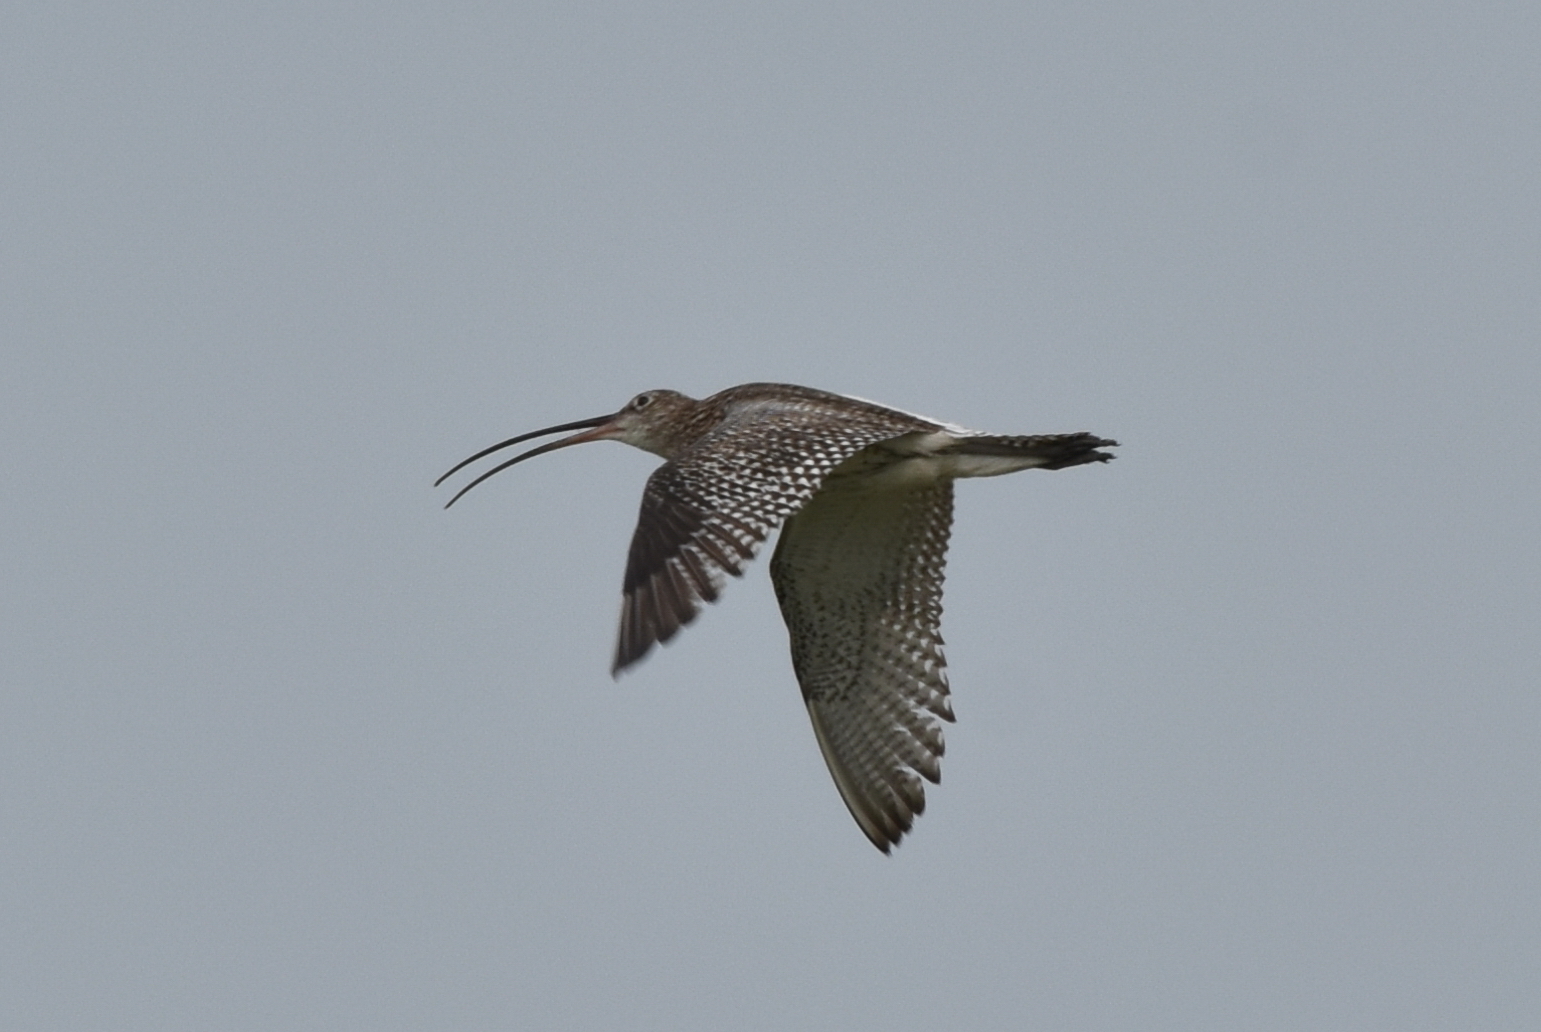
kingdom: Animalia
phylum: Chordata
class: Aves
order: Charadriiformes
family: Scolopacidae
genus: Numenius
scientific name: Numenius arquata
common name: Eurasian curlew
